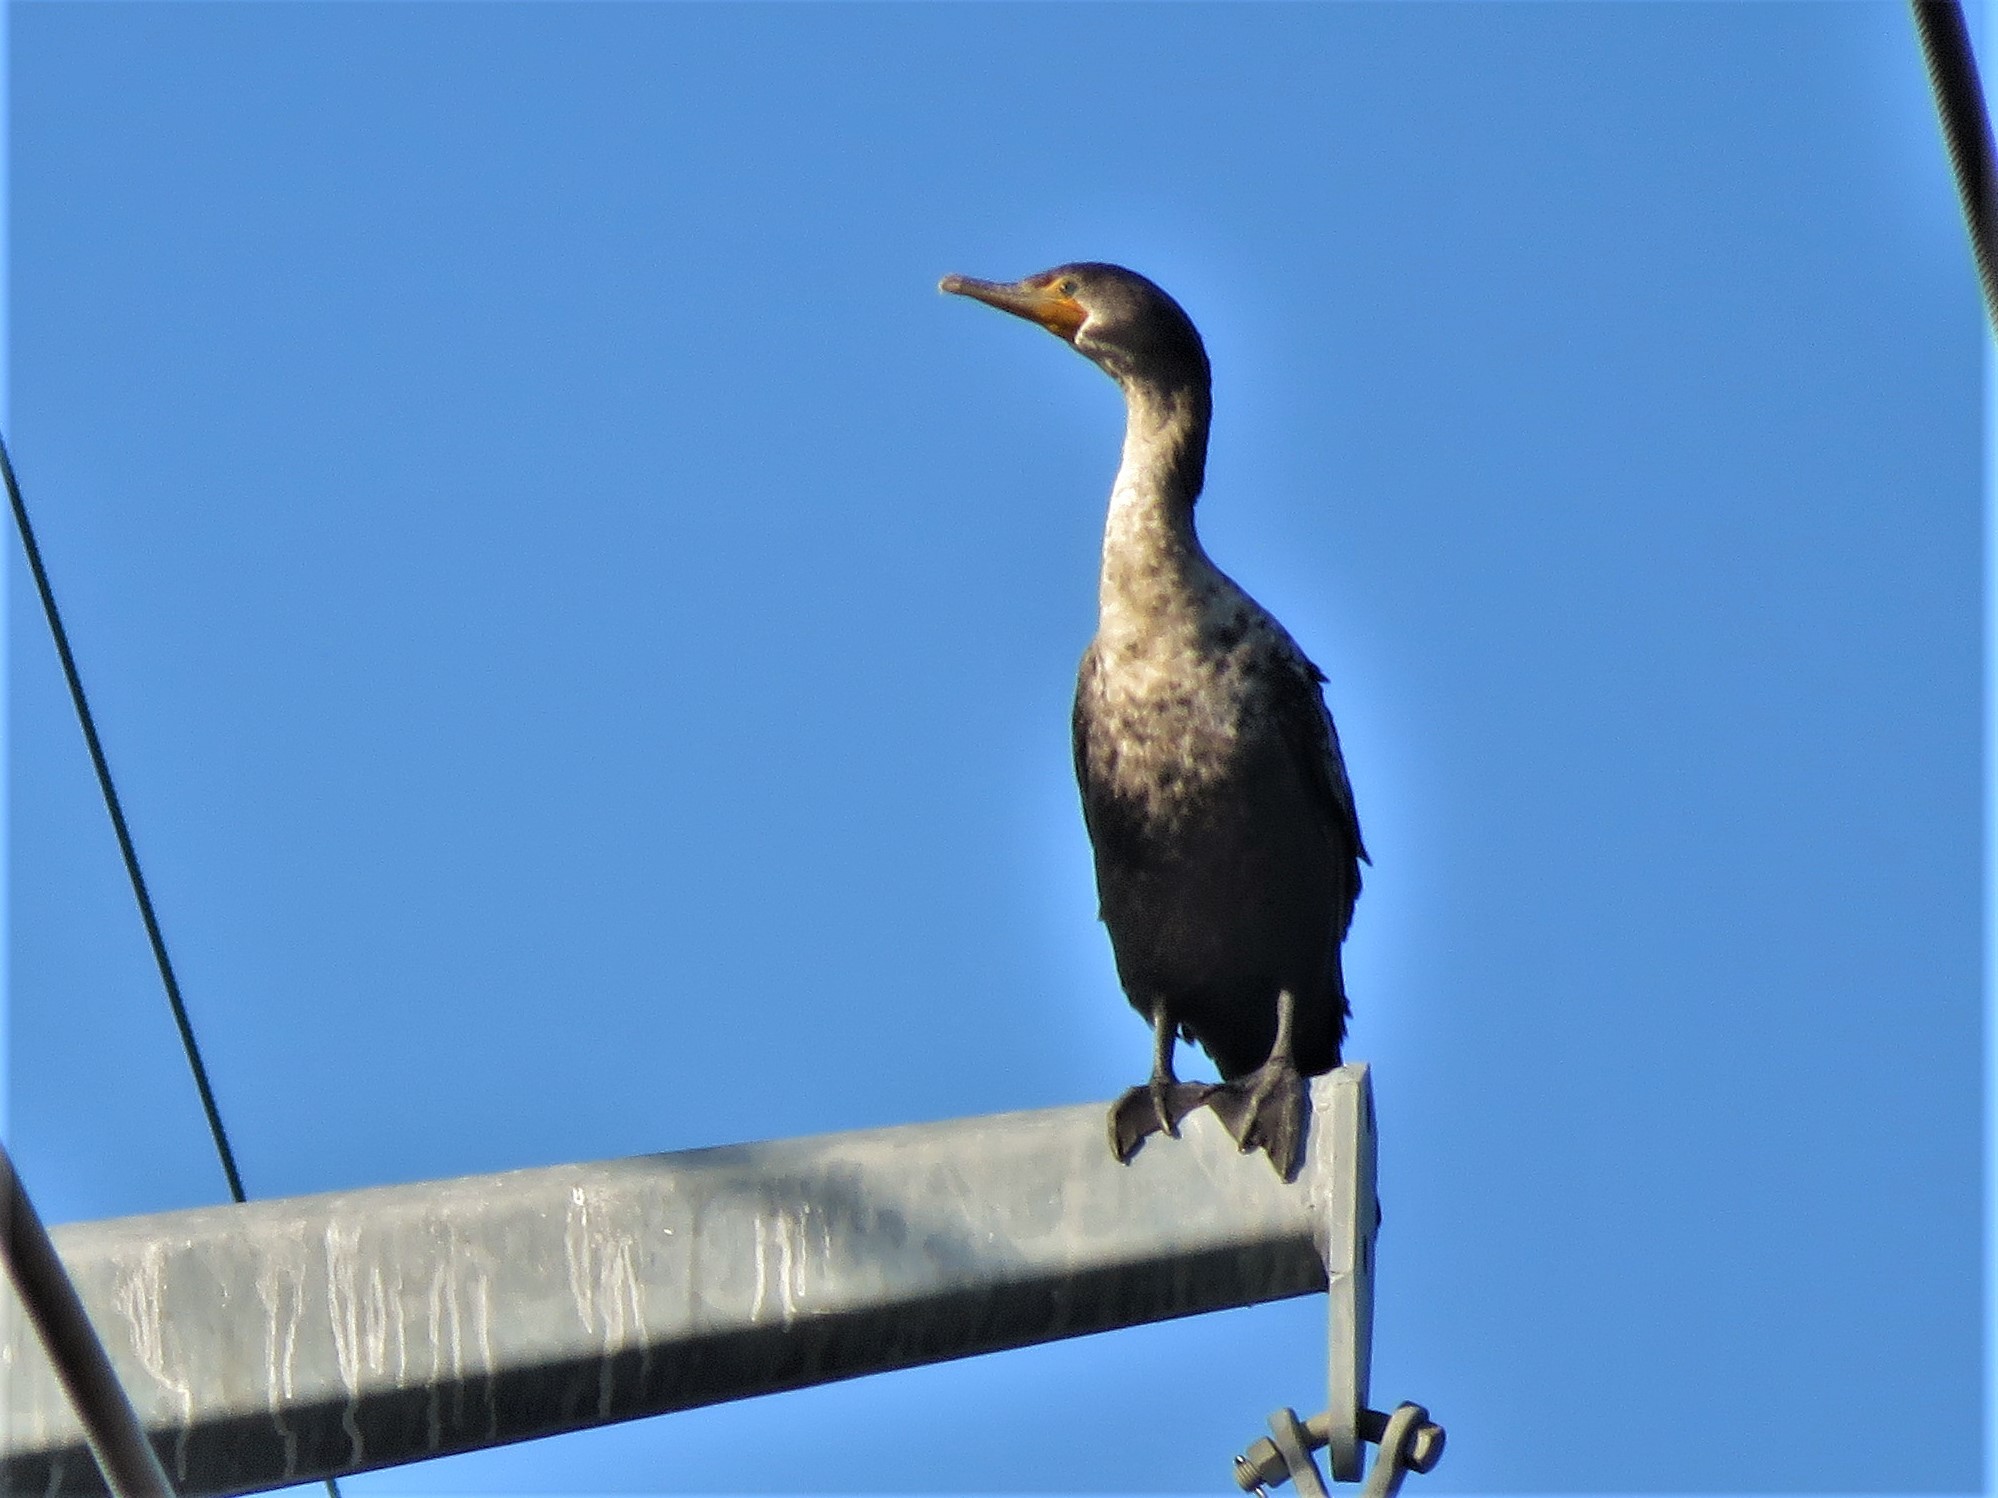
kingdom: Animalia
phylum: Chordata
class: Aves
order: Suliformes
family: Phalacrocoracidae
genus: Phalacrocorax
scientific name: Phalacrocorax auritus
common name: Double-crested cormorant
